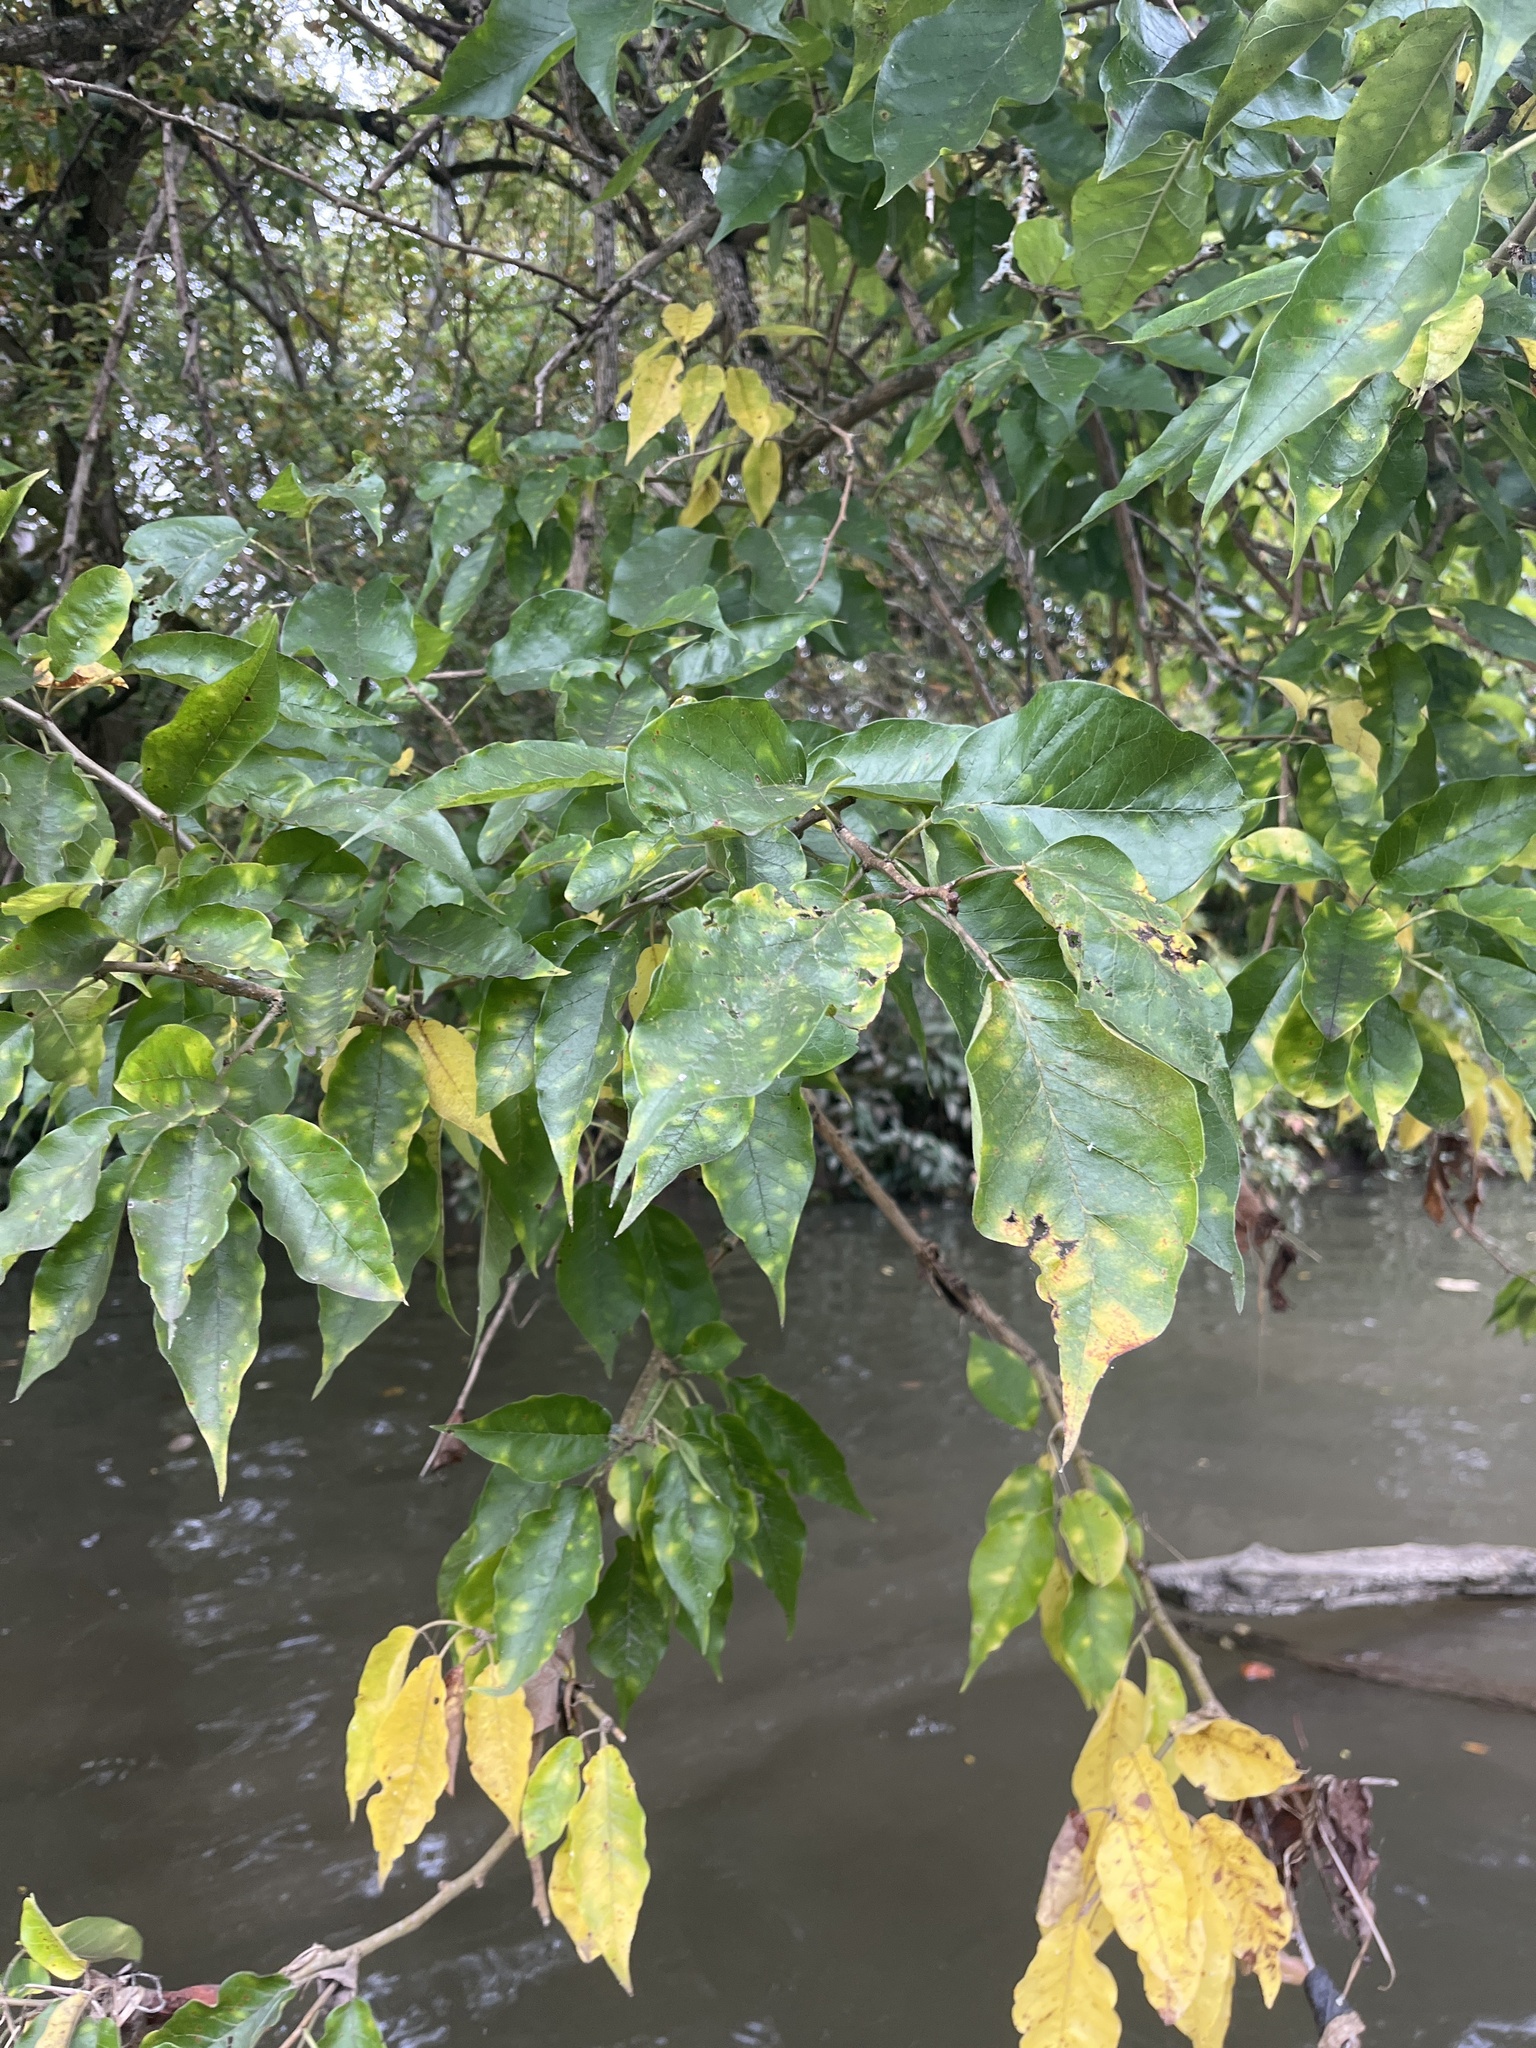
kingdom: Plantae
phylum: Tracheophyta
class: Magnoliopsida
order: Rosales
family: Moraceae
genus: Maclura
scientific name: Maclura pomifera
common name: Osage-orange
